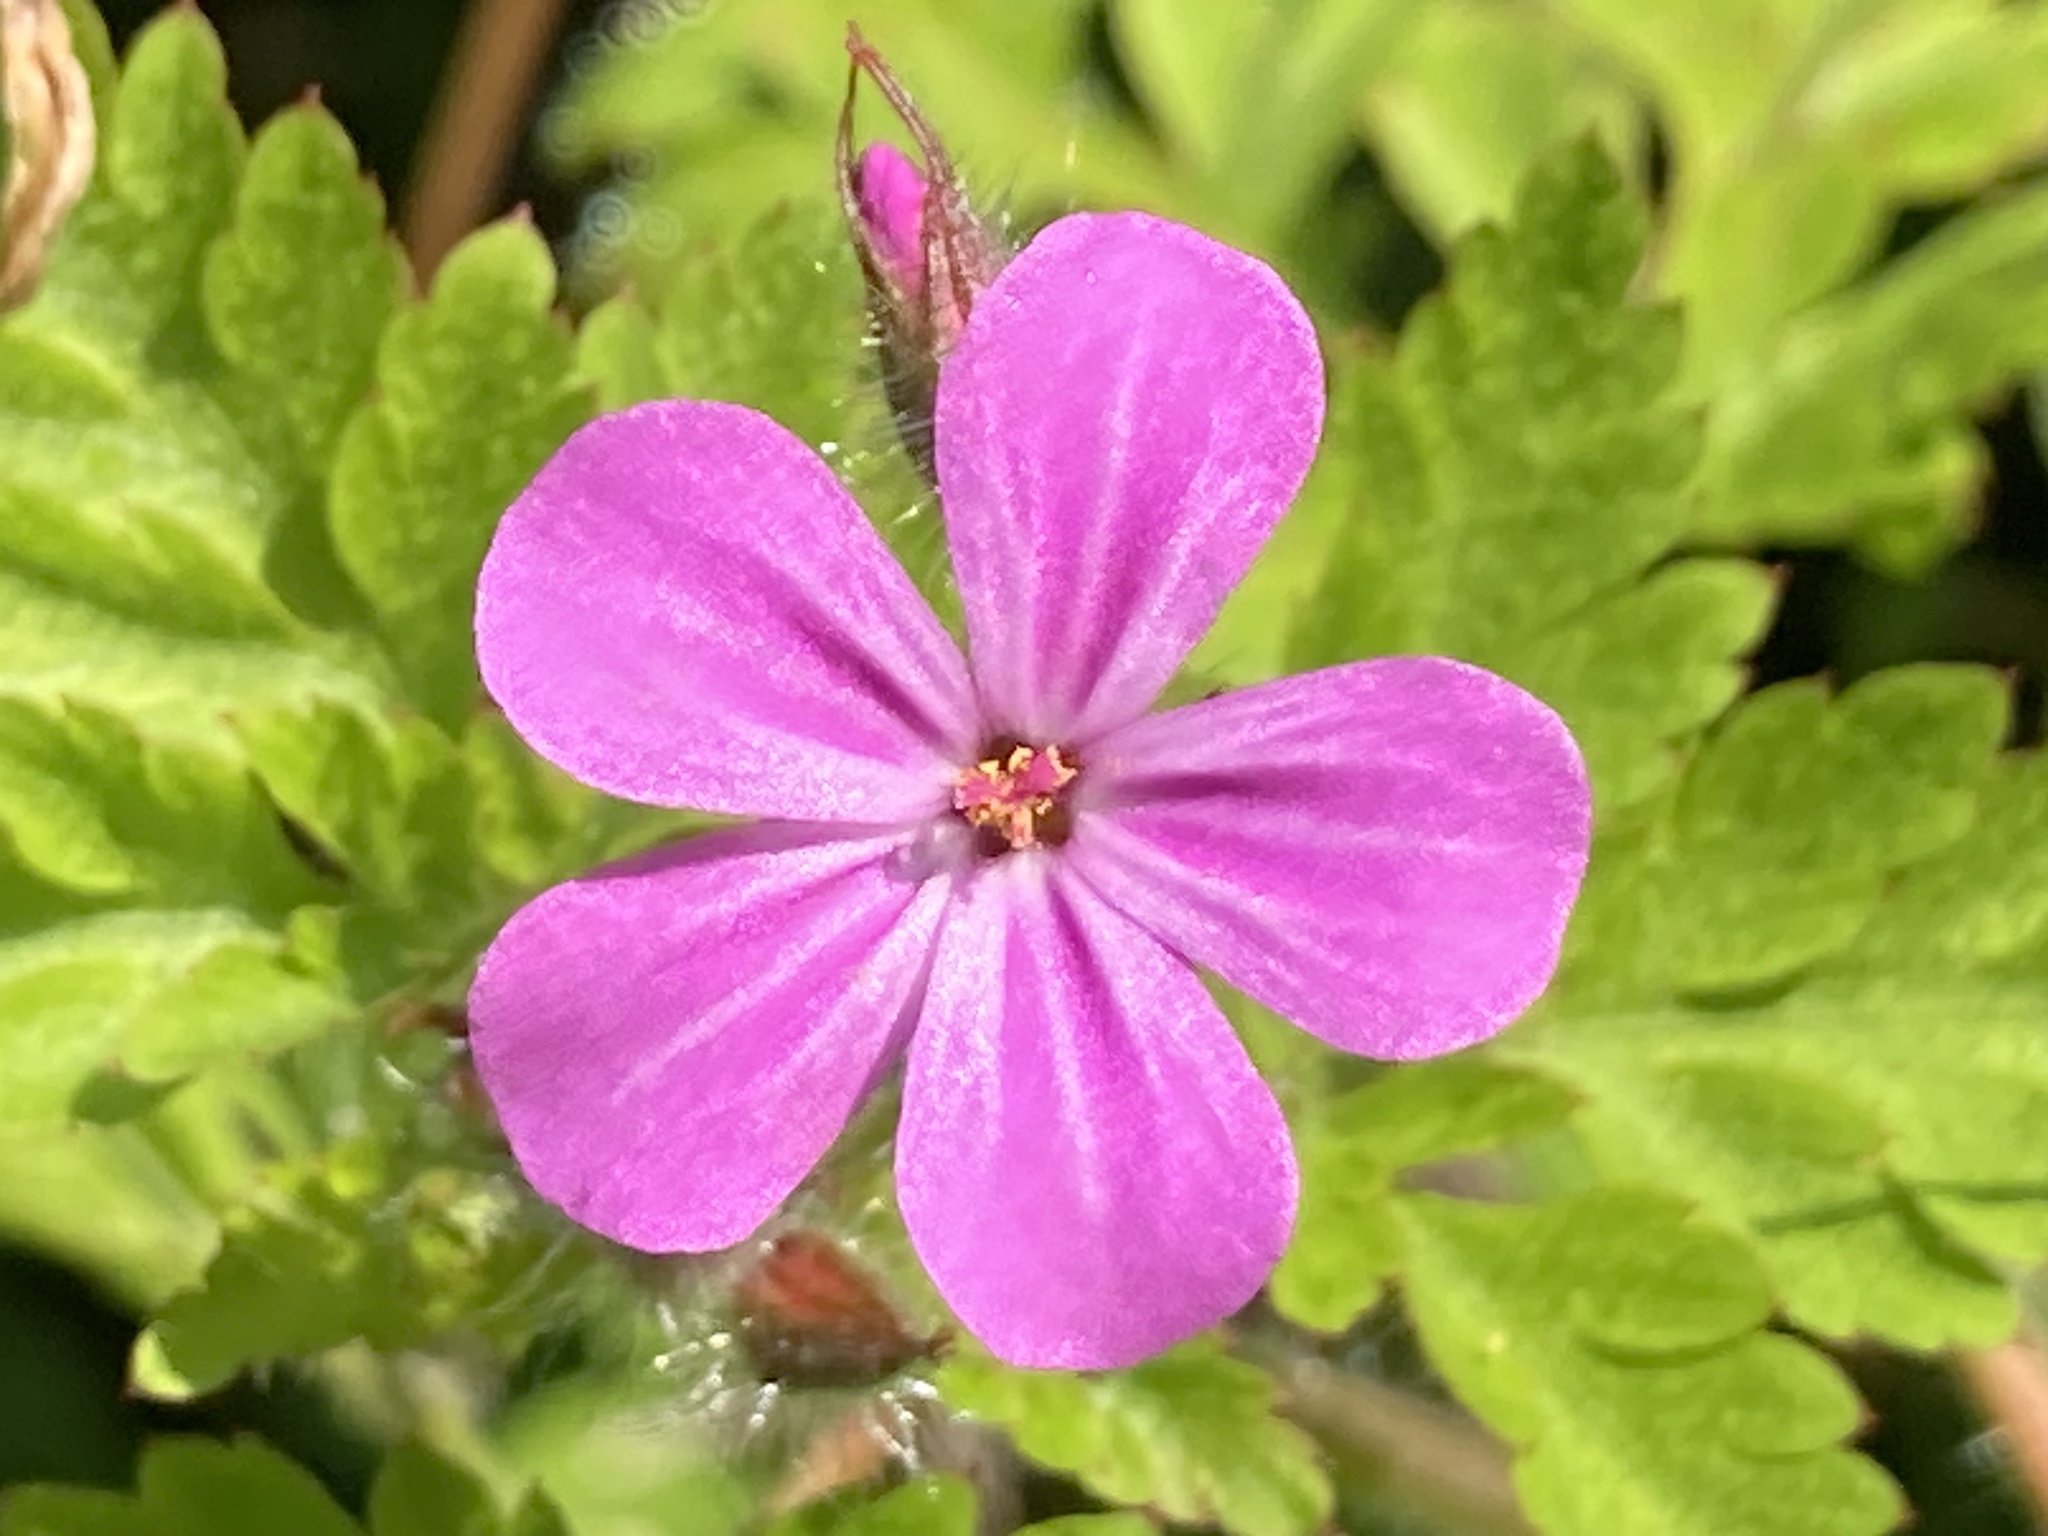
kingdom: Plantae
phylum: Tracheophyta
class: Magnoliopsida
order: Geraniales
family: Geraniaceae
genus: Geranium
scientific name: Geranium robertianum
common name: Herb-robert
